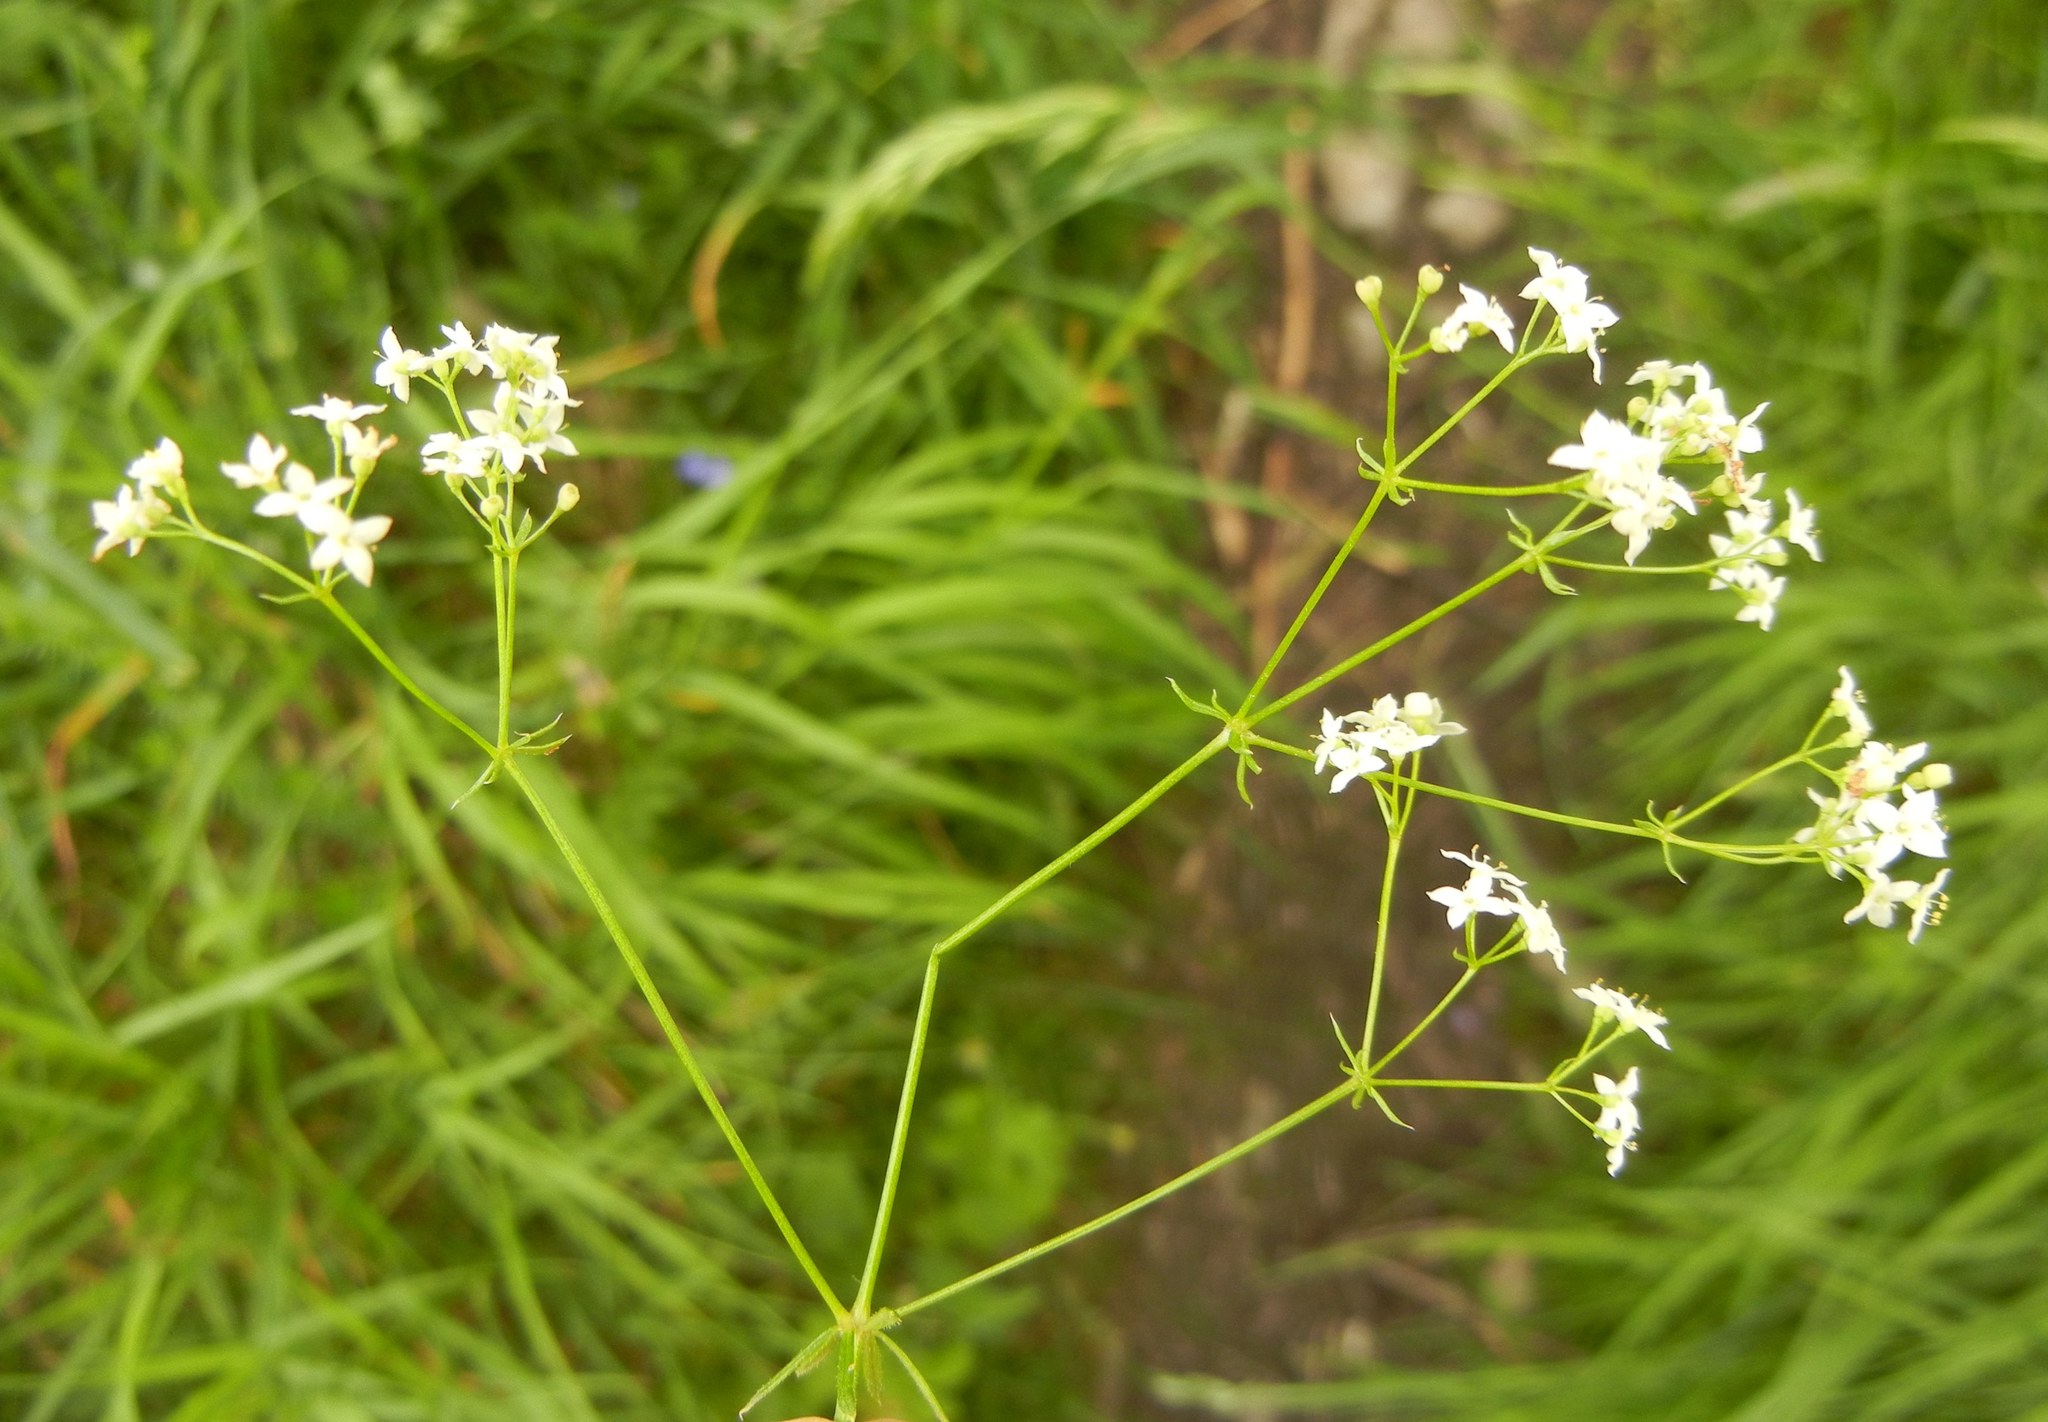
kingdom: Plantae
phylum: Tracheophyta
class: Magnoliopsida
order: Gentianales
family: Rubiaceae
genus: Galium
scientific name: Galium sterneri
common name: Limestone bedstraw
